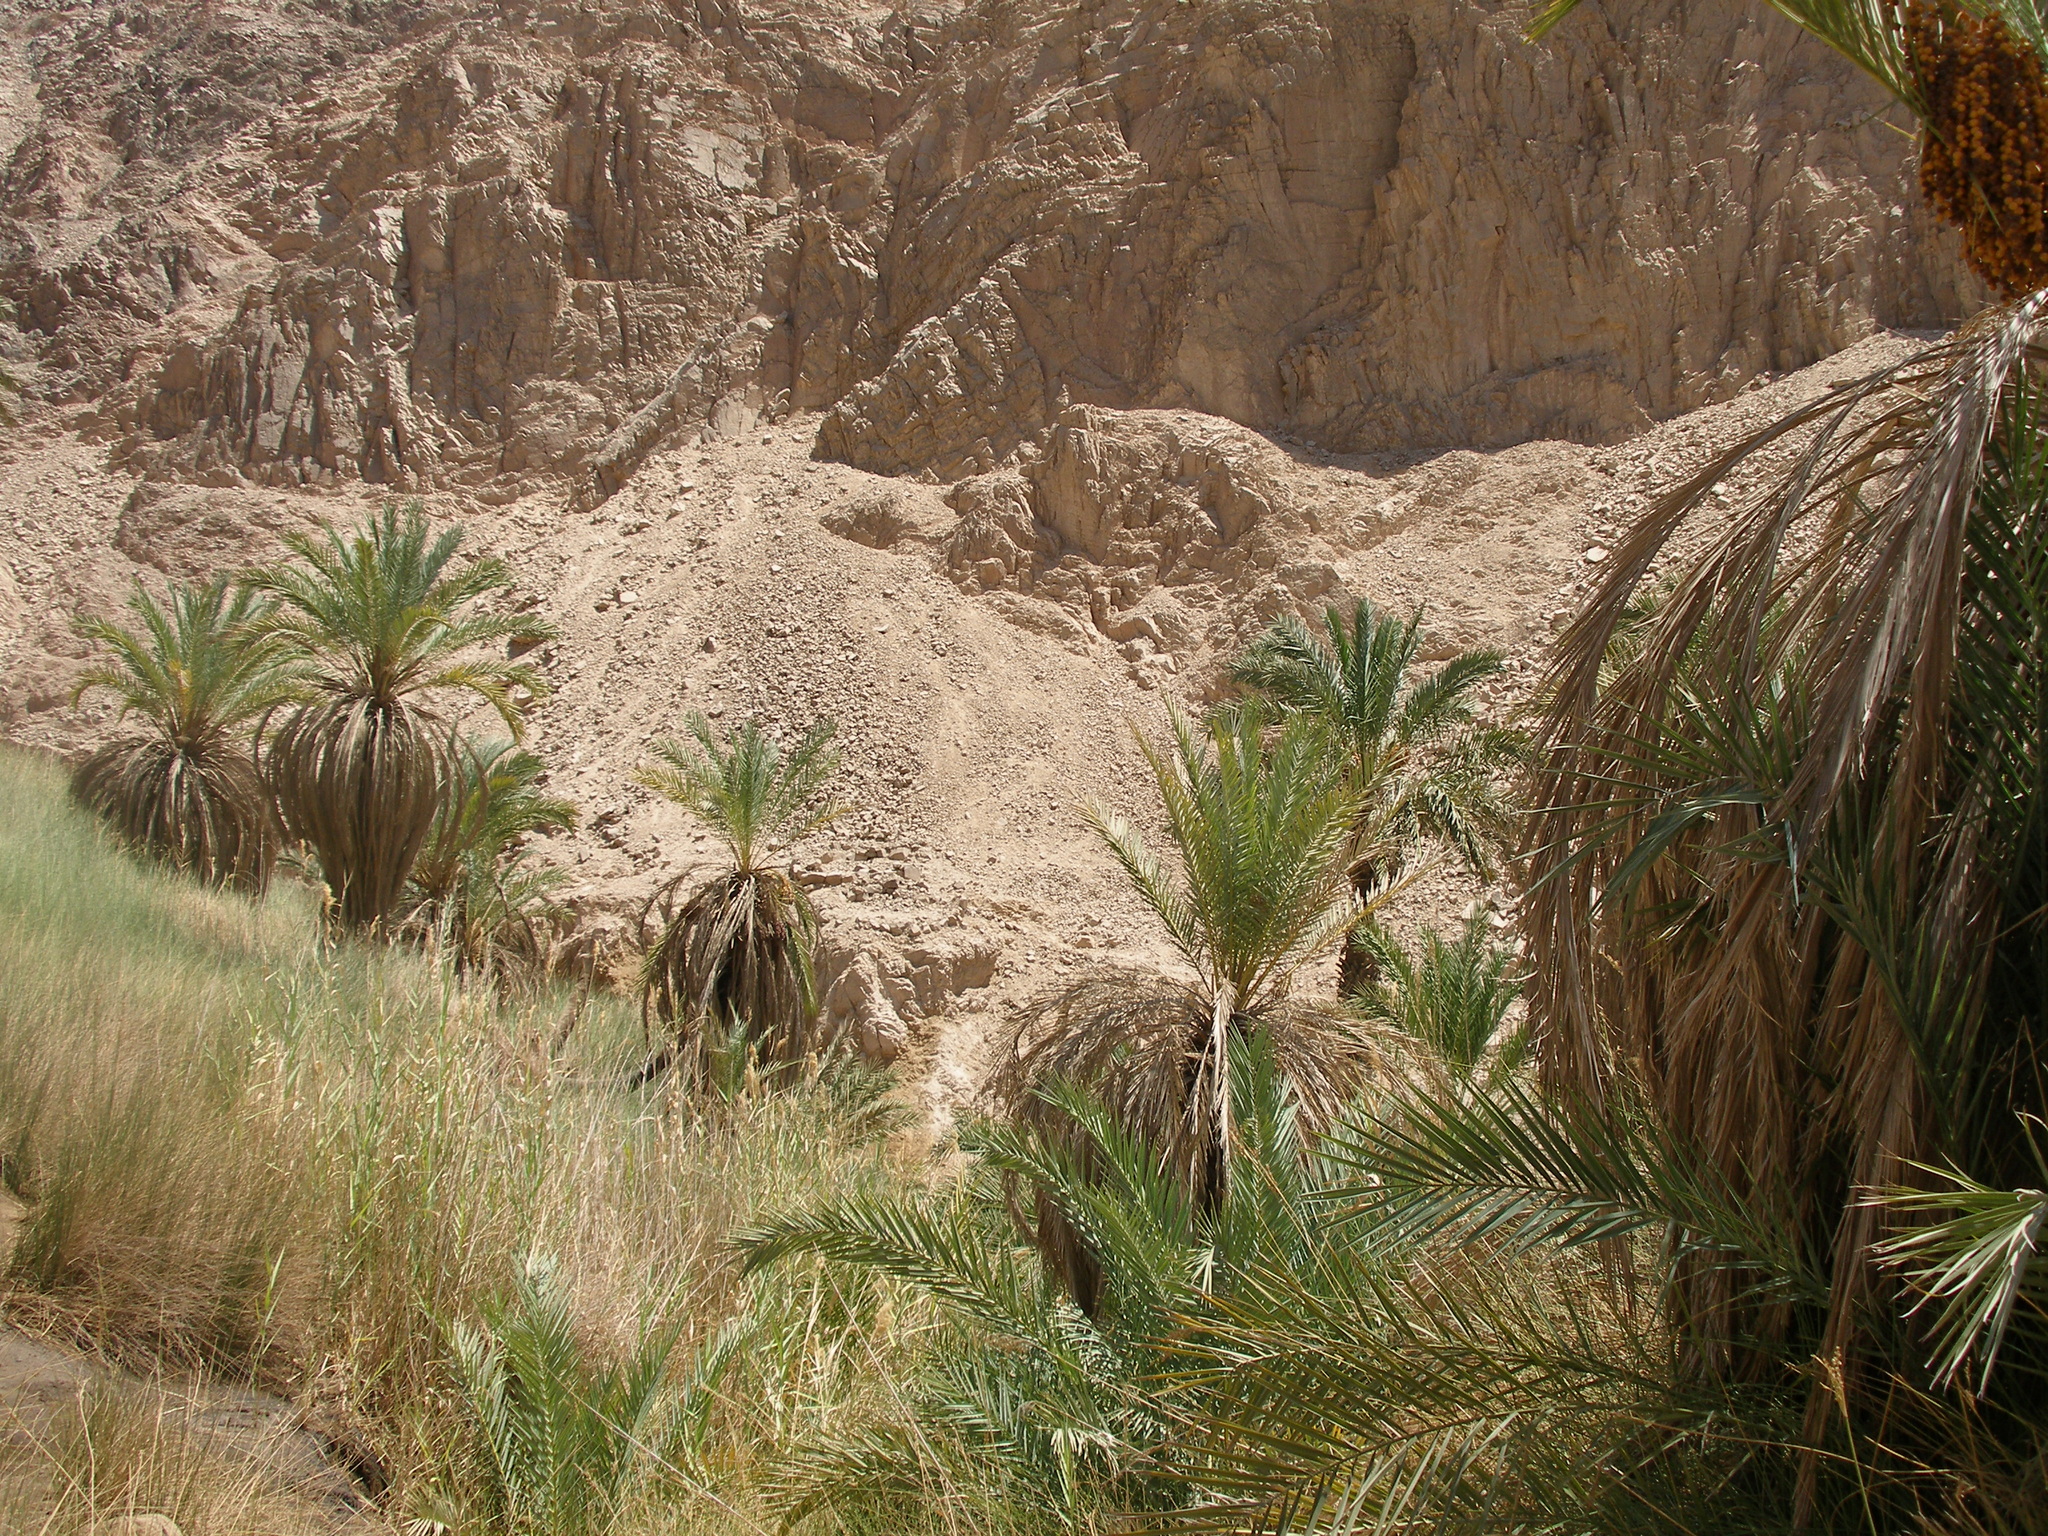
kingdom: Plantae
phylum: Tracheophyta
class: Liliopsida
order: Arecales
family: Arecaceae
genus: Phoenix
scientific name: Phoenix dactylifera
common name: Date palm
